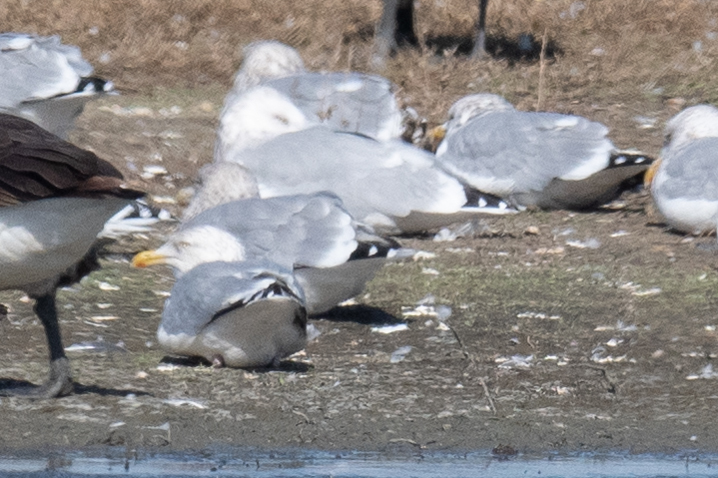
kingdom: Animalia
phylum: Chordata
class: Aves
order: Charadriiformes
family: Laridae
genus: Larus
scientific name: Larus argentatus
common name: Herring gull
